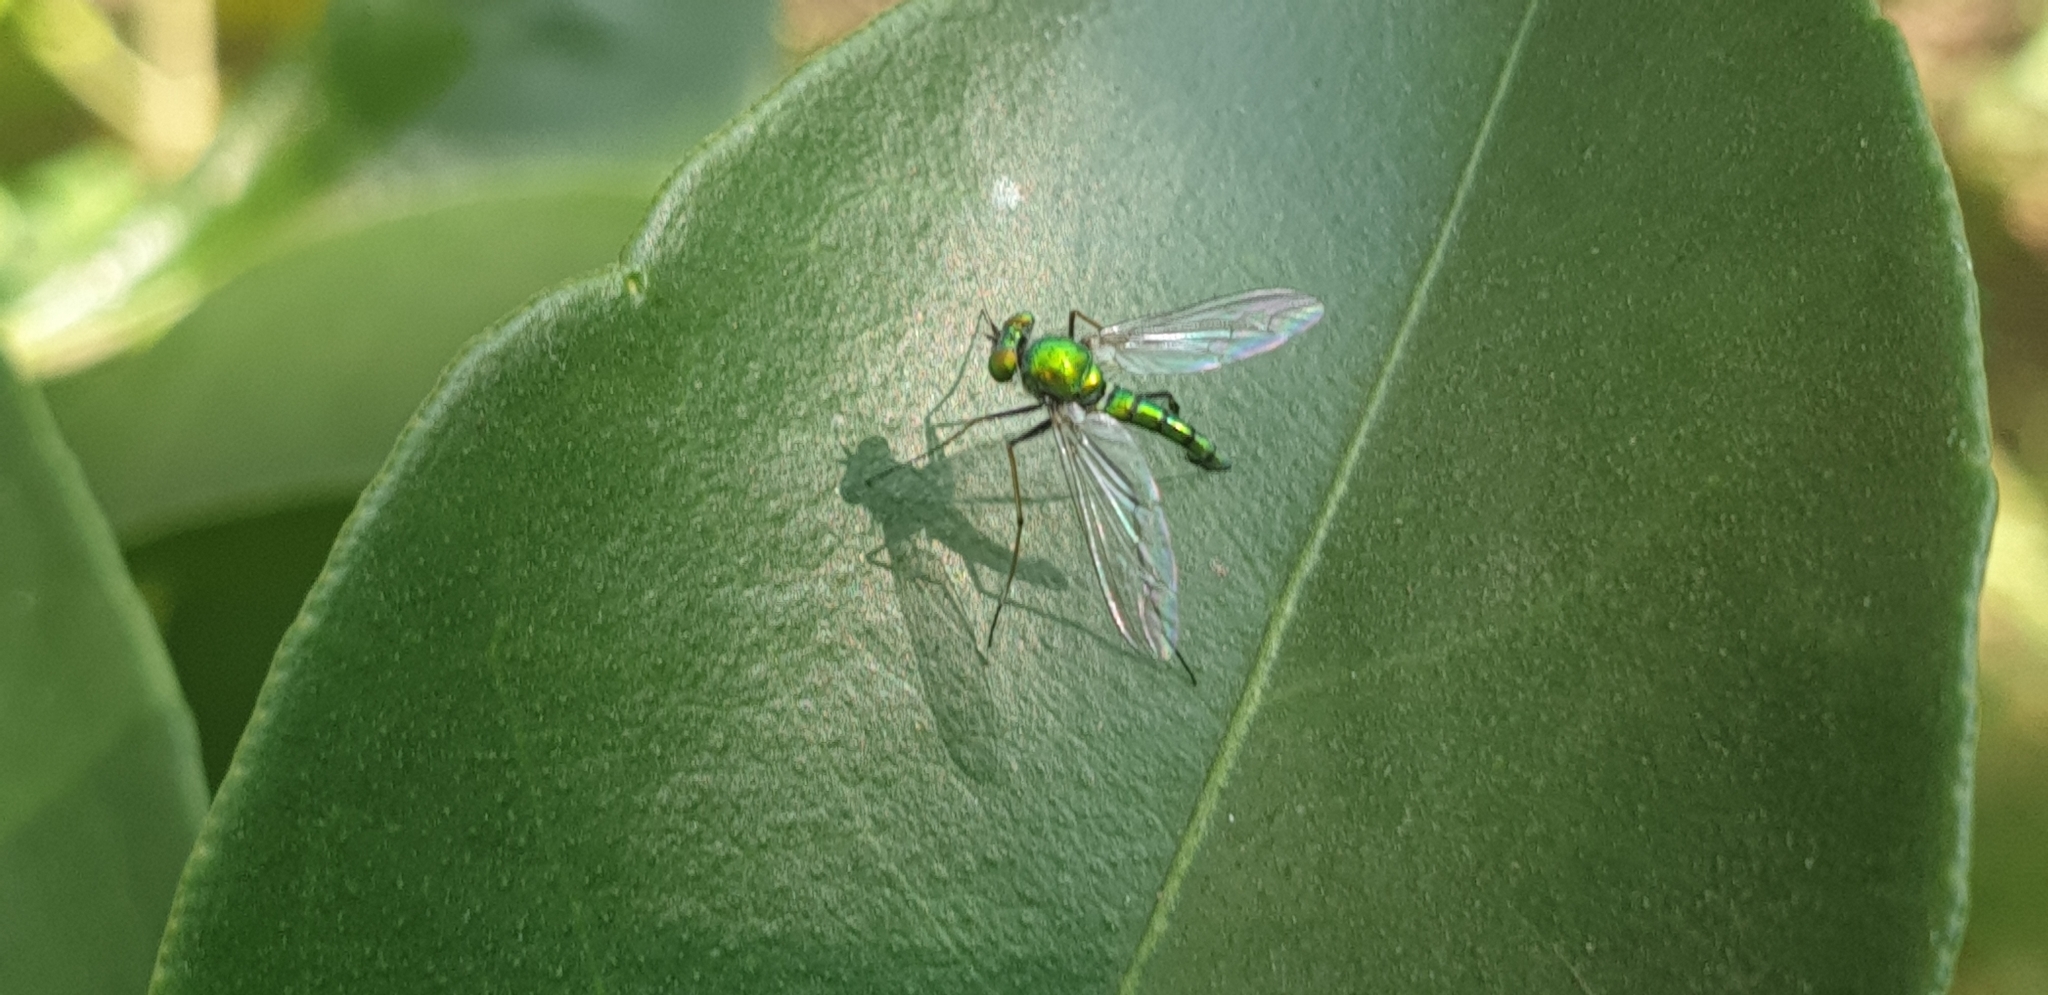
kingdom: Animalia
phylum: Arthropoda
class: Insecta
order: Diptera
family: Dolichopodidae
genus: Chrysosoma
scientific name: Chrysosoma leucopogon
